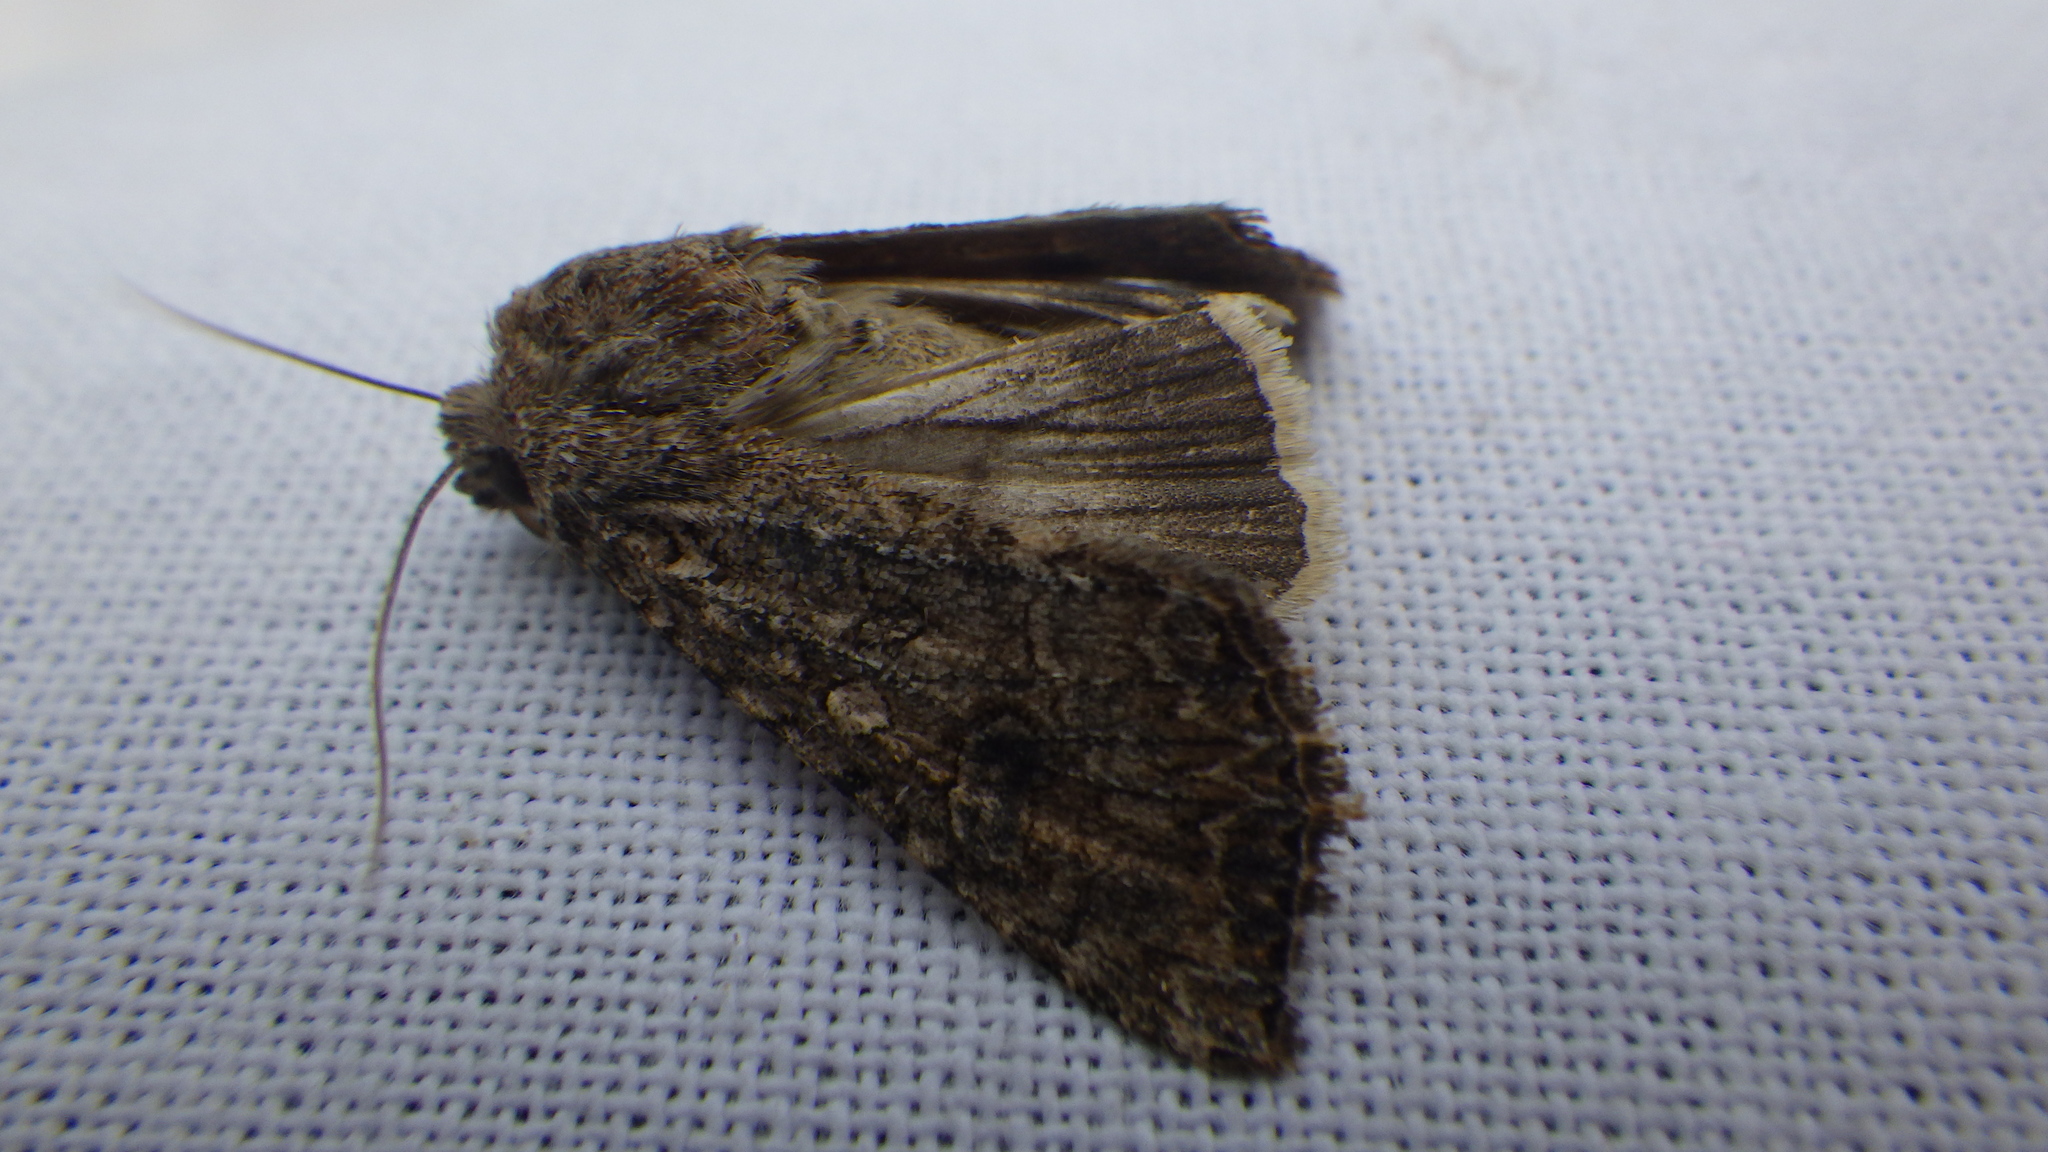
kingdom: Animalia
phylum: Arthropoda
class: Insecta
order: Lepidoptera
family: Noctuidae
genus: Anarta
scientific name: Anarta trifolii
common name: Clover cutworm moth
